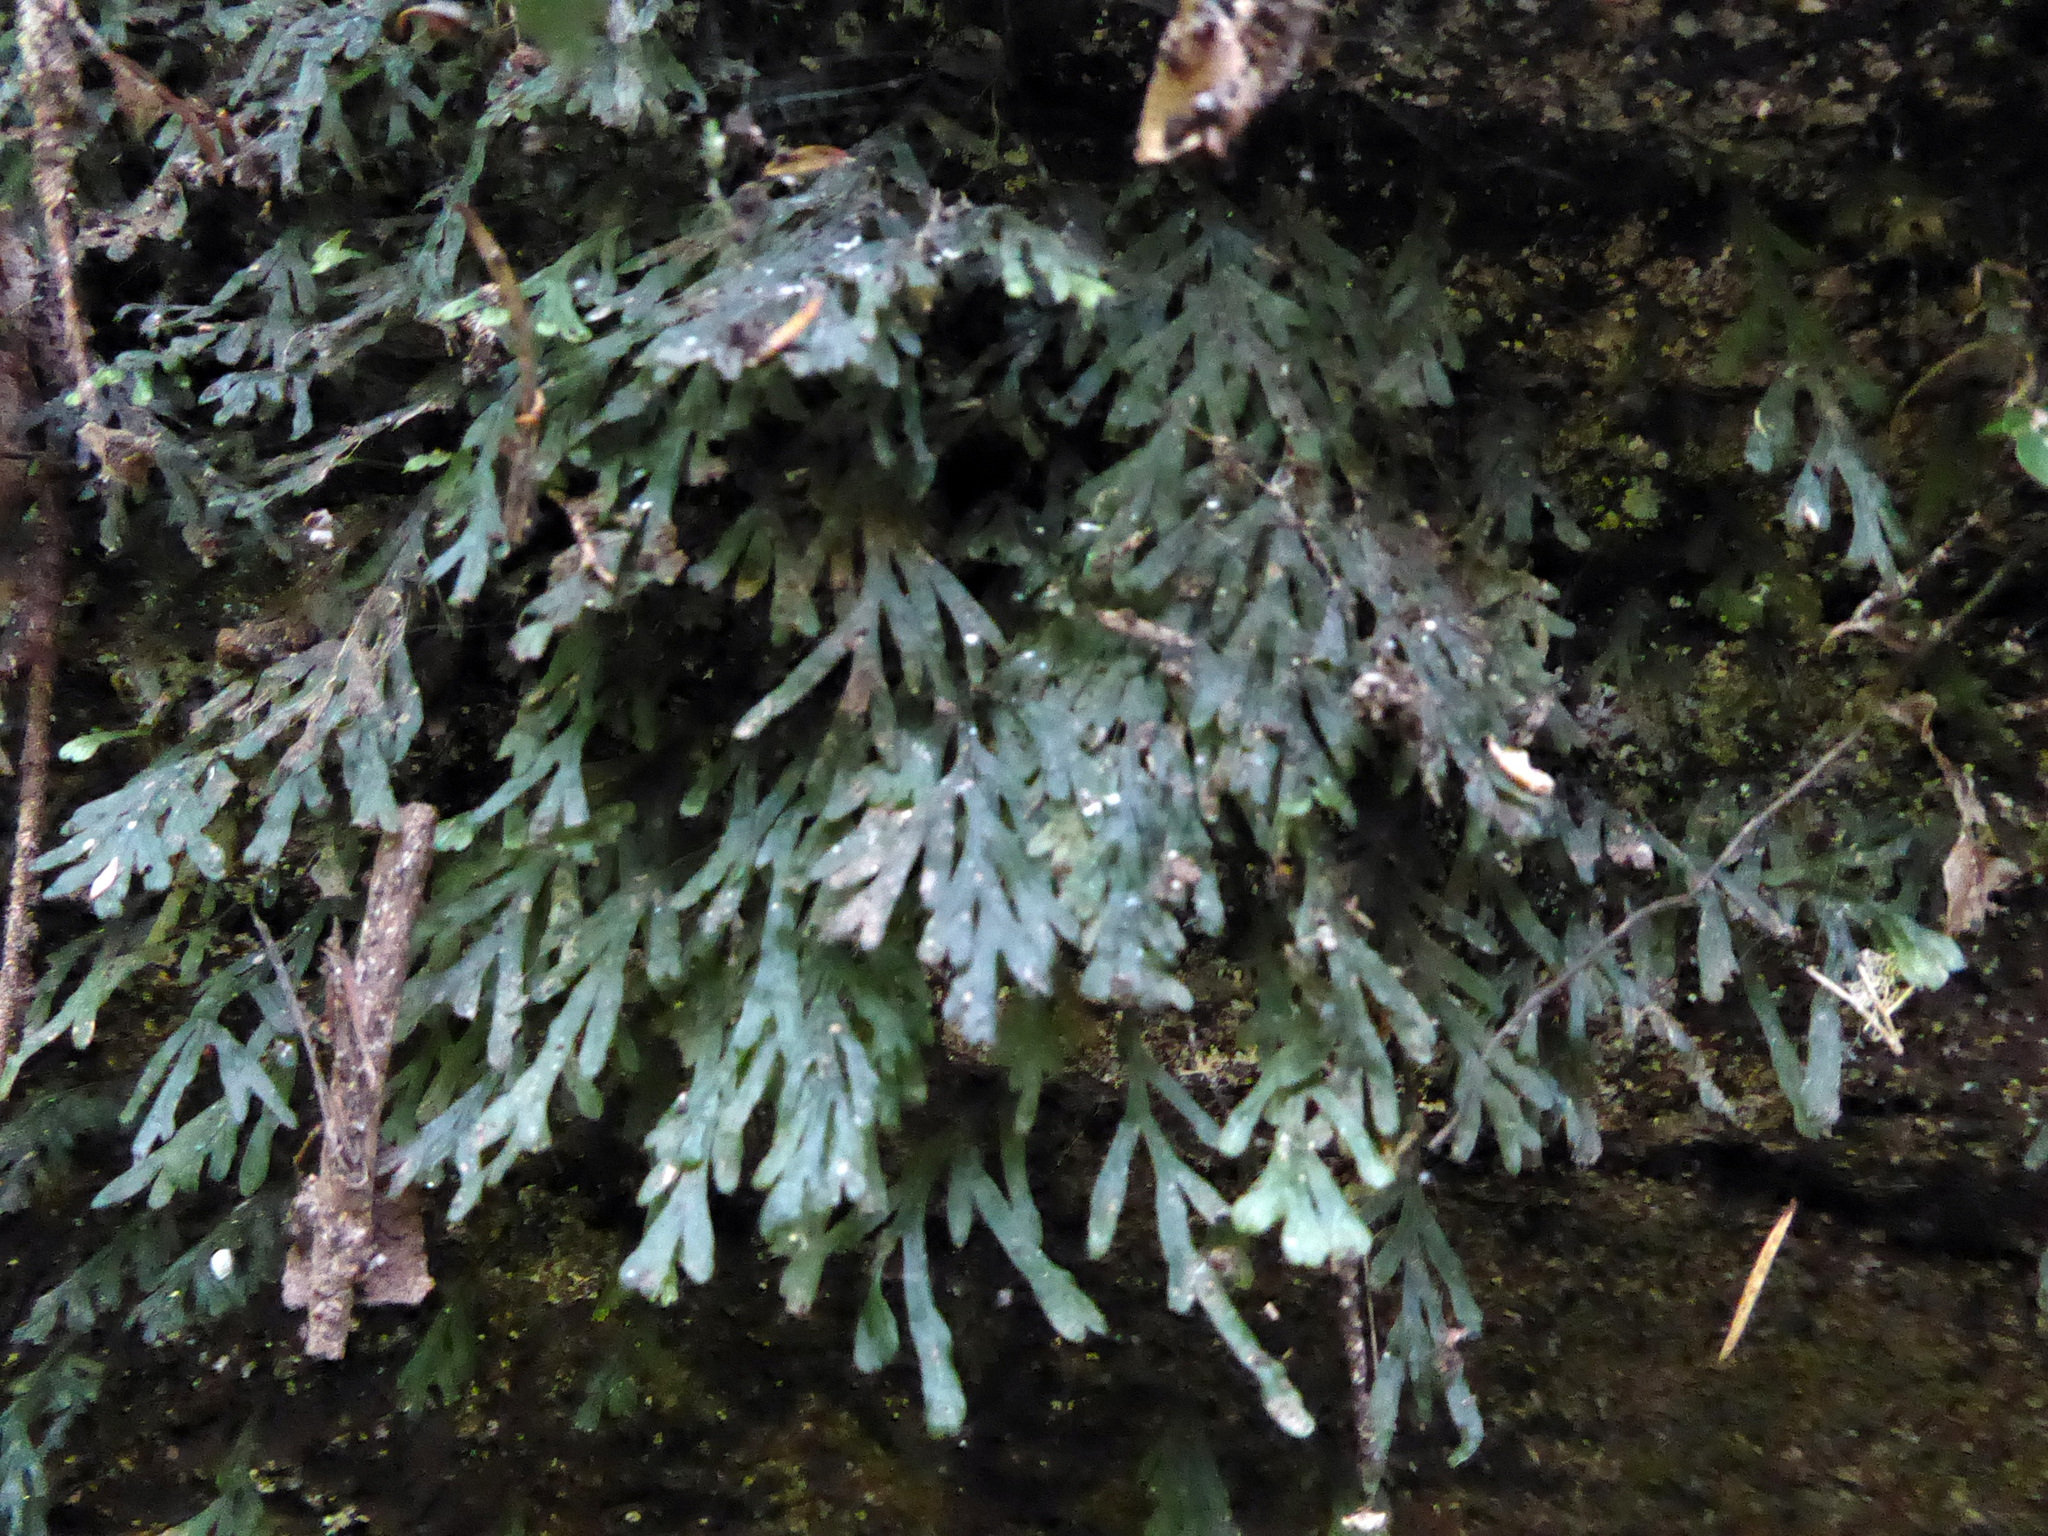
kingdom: Plantae
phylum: Tracheophyta
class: Polypodiopsida
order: Hymenophyllales
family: Hymenophyllaceae
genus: Polyphlebium
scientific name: Polyphlebium endlicherianum
